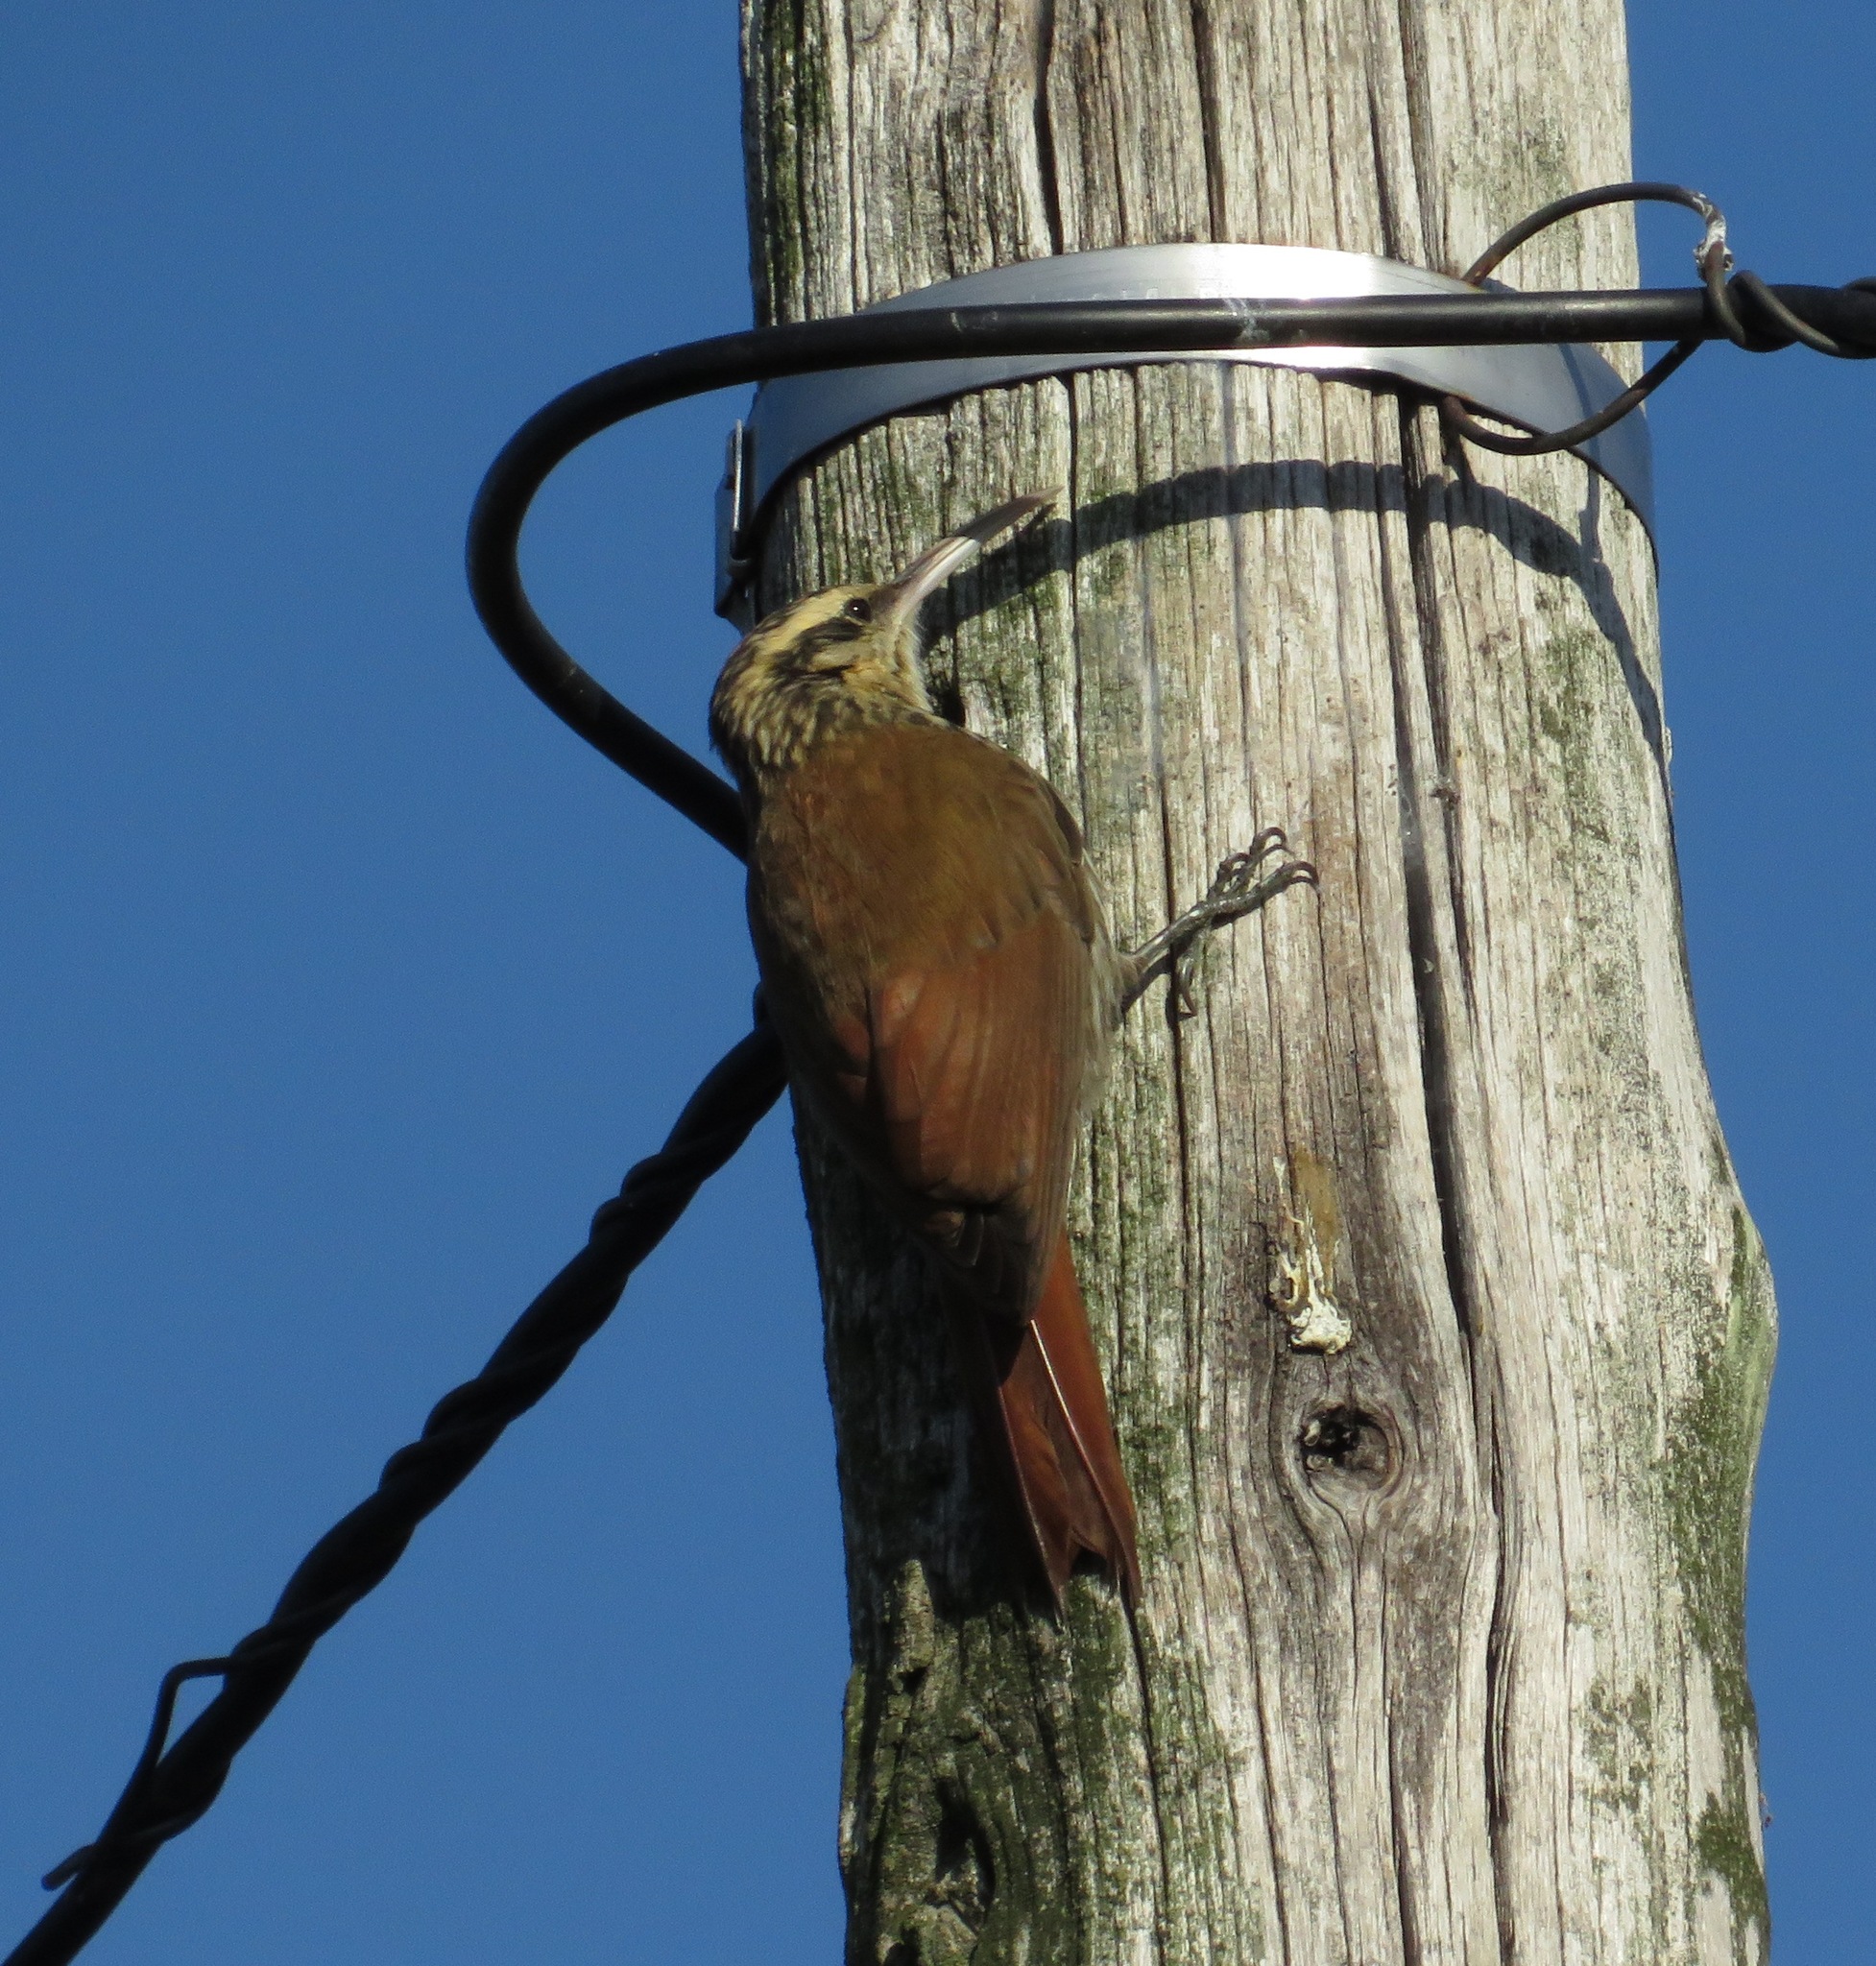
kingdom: Animalia
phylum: Chordata
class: Aves
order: Passeriformes
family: Furnariidae
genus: Lepidocolaptes
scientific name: Lepidocolaptes angustirostris
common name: Narrow-billed woodcreeper
